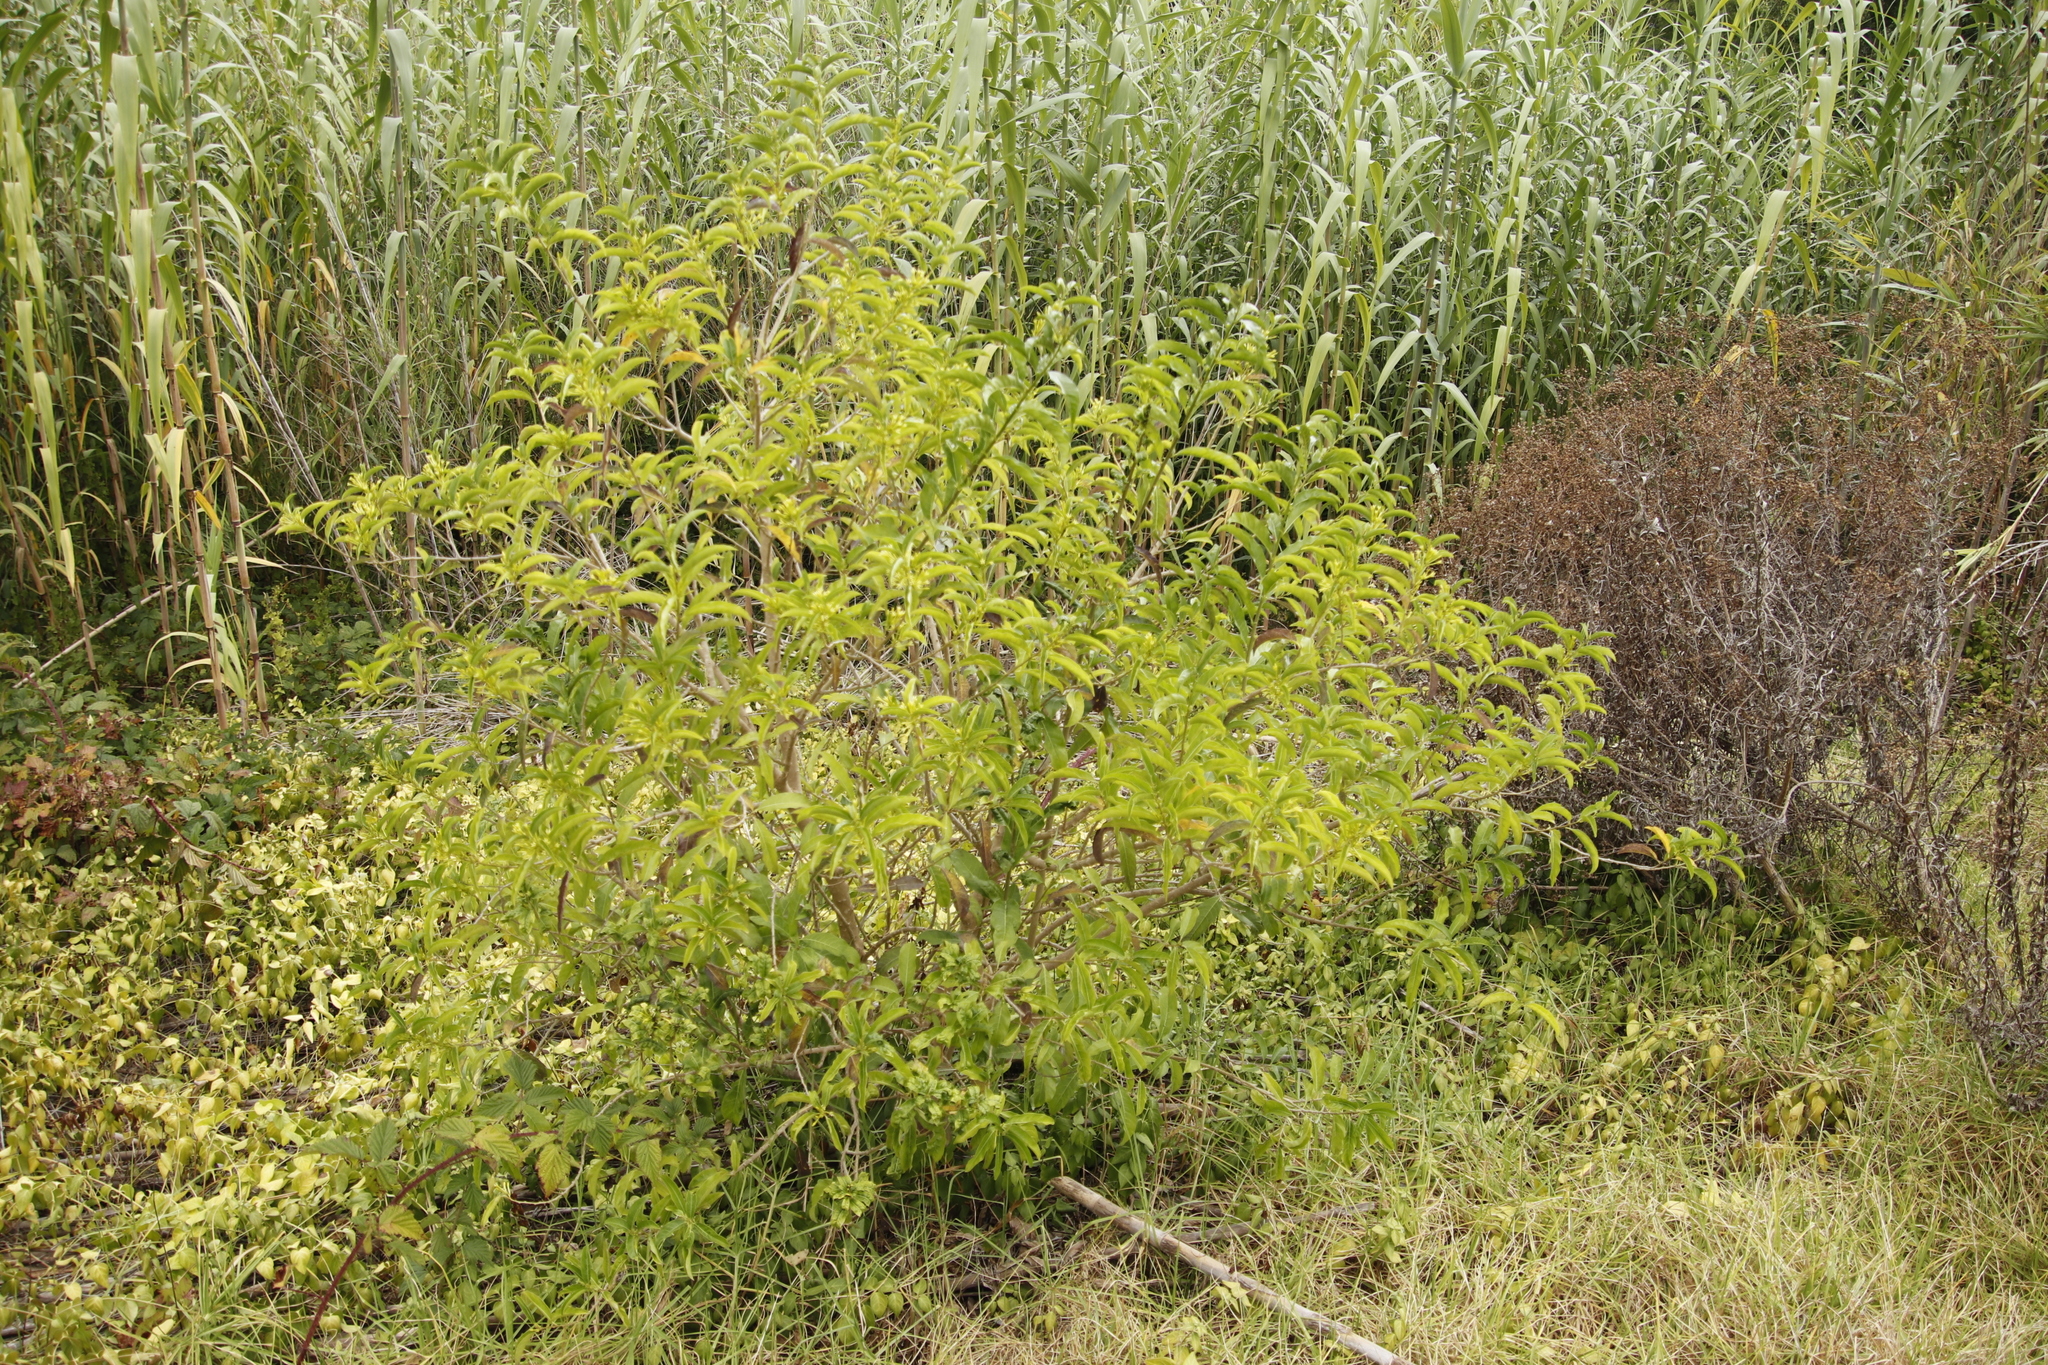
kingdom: Plantae
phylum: Tracheophyta
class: Magnoliopsida
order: Solanales
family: Solanaceae
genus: Cestrum
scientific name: Cestrum laevigatum
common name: Inkberry
